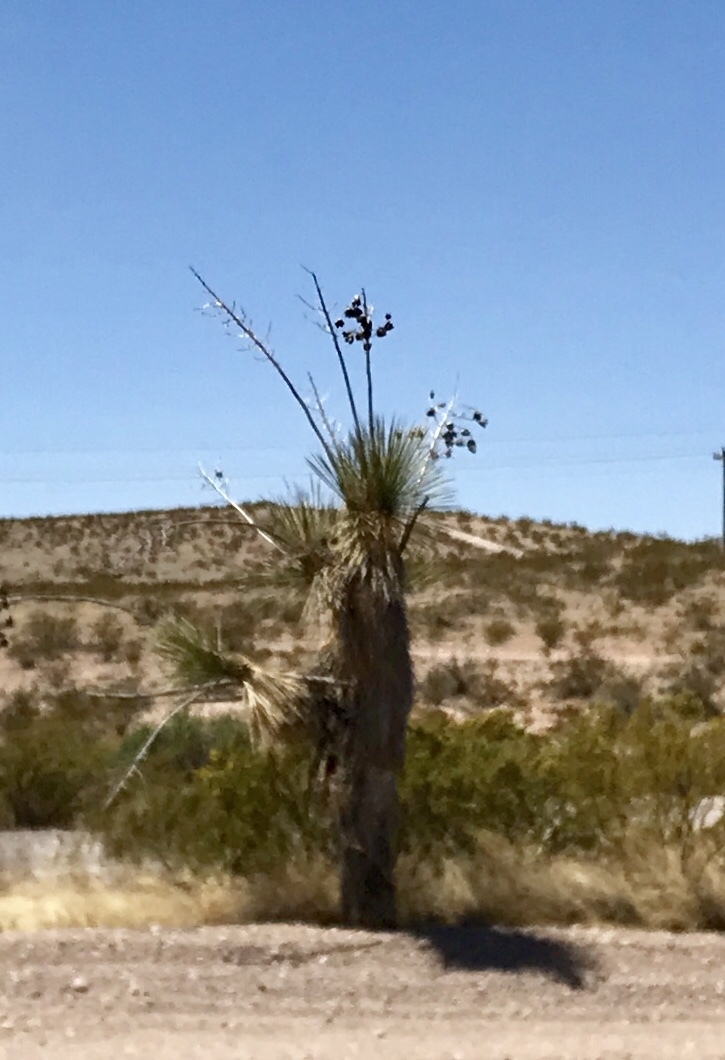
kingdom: Plantae
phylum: Tracheophyta
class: Liliopsida
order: Asparagales
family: Asparagaceae
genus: Yucca
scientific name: Yucca elata
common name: Palmella
